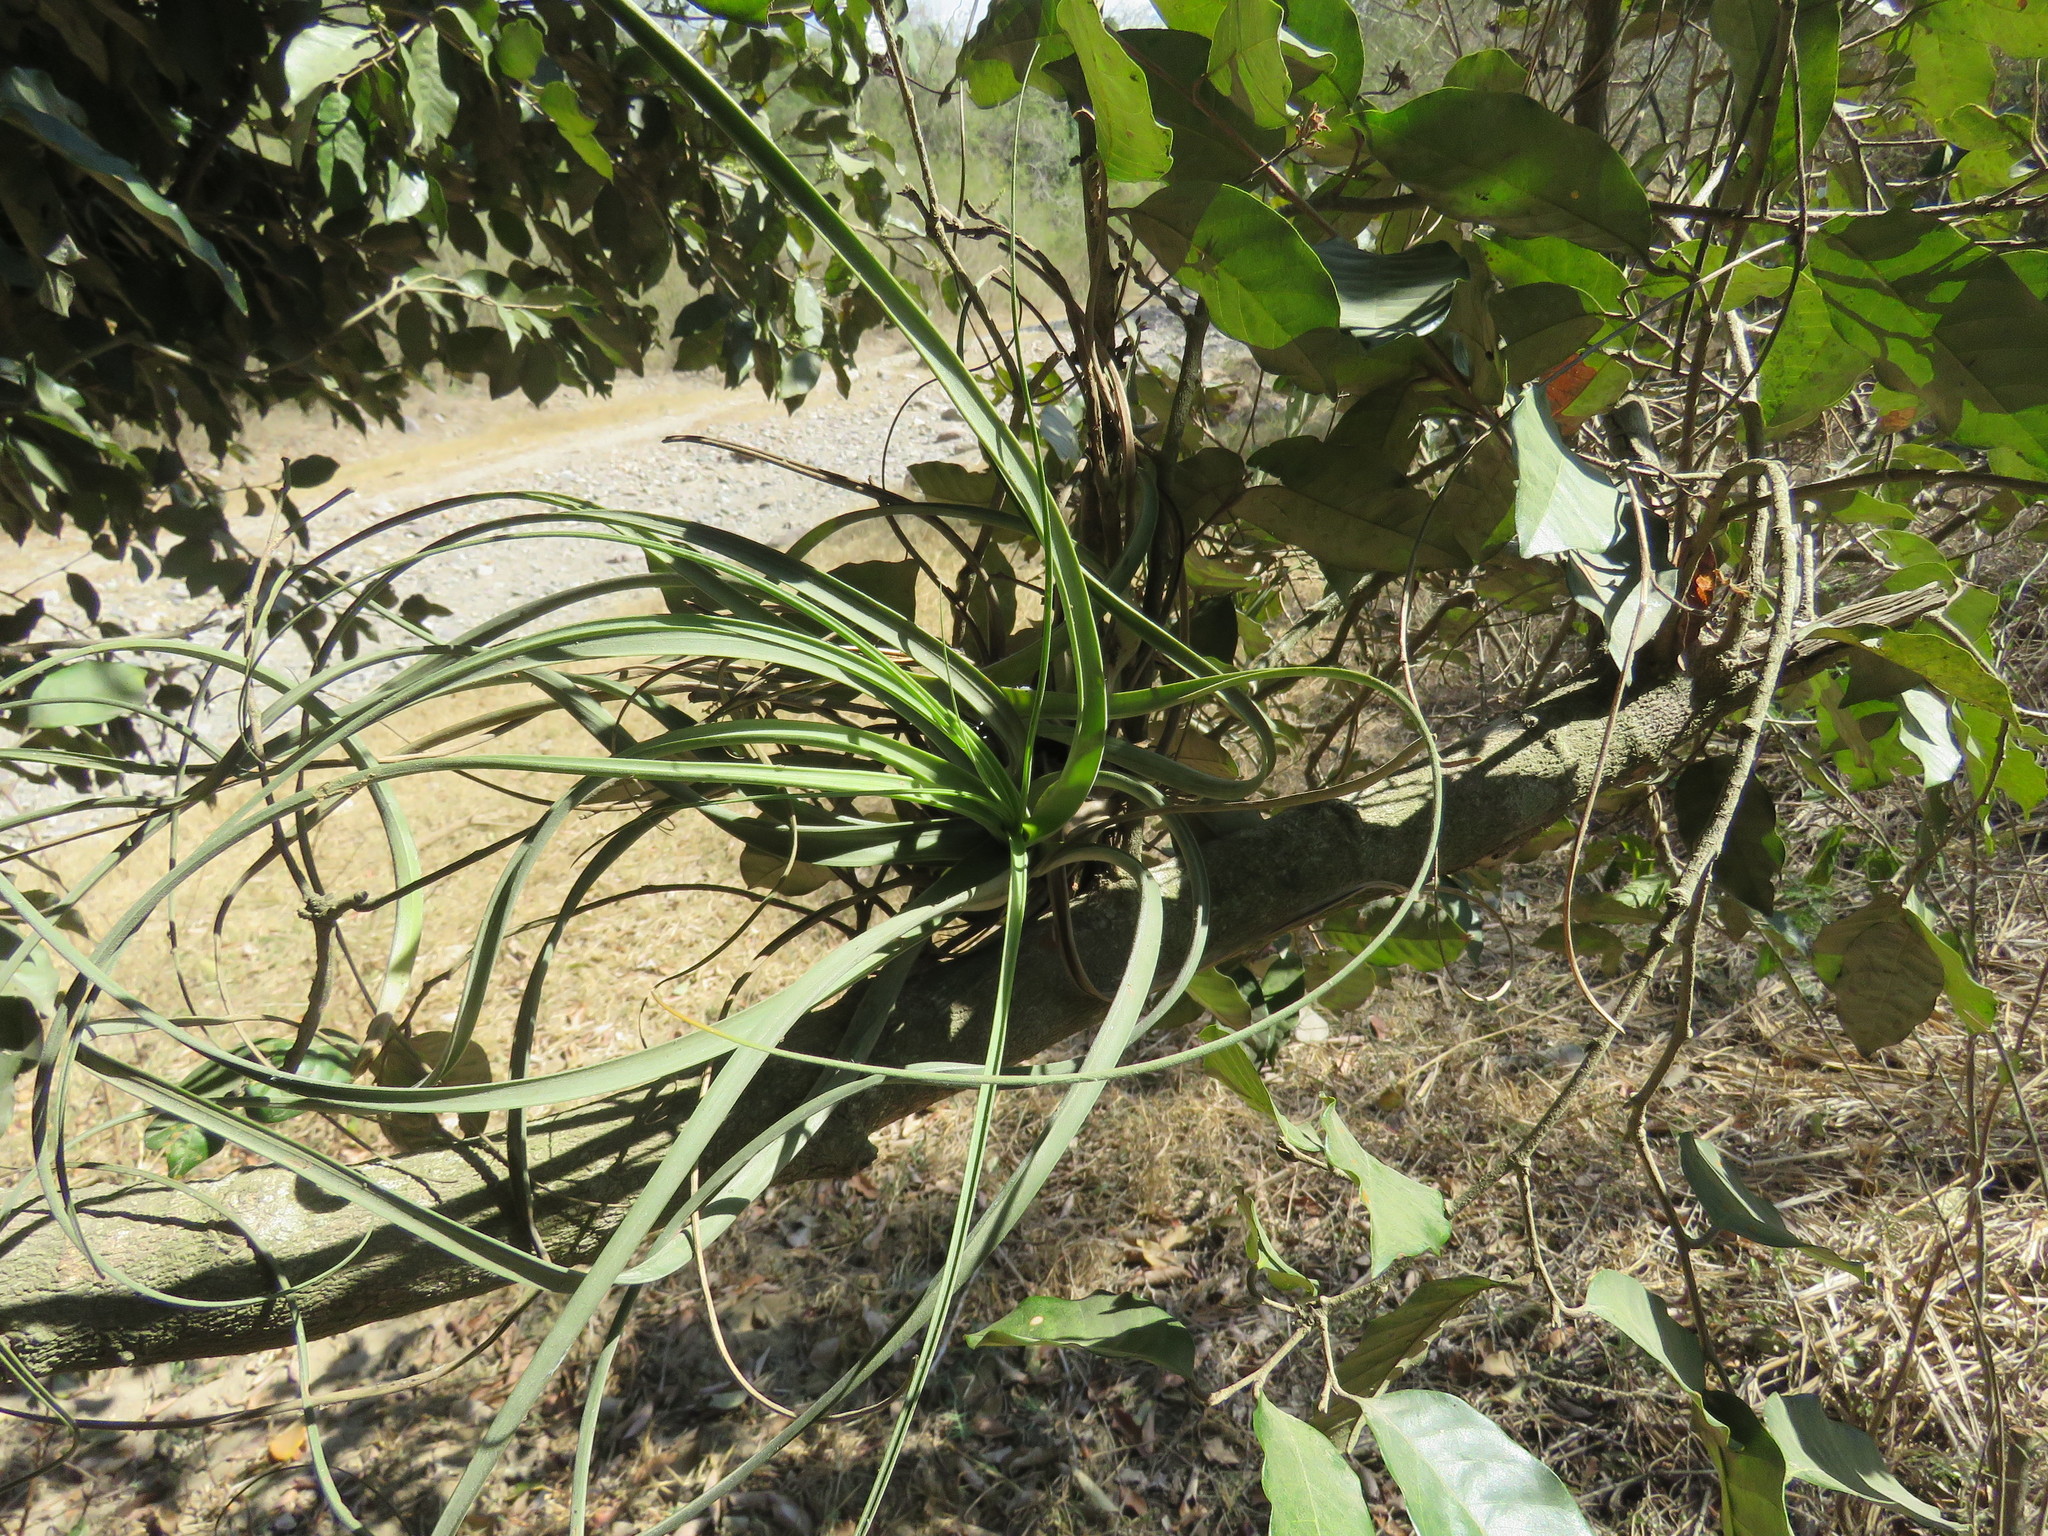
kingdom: Plantae
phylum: Tracheophyta
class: Liliopsida
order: Poales
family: Bromeliaceae
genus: Tillandsia
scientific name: Tillandsia balbisiana
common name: Northern needleleaf
